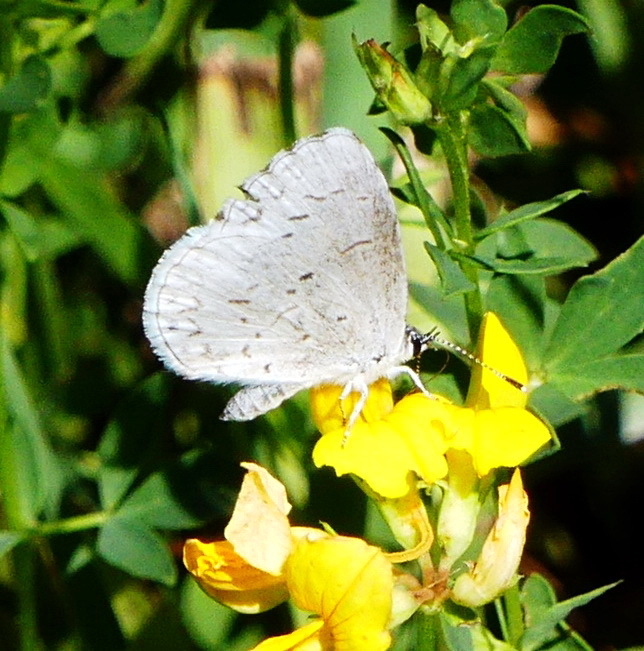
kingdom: Animalia
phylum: Arthropoda
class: Insecta
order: Lepidoptera
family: Lycaenidae
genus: Cyaniris
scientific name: Cyaniris neglecta
